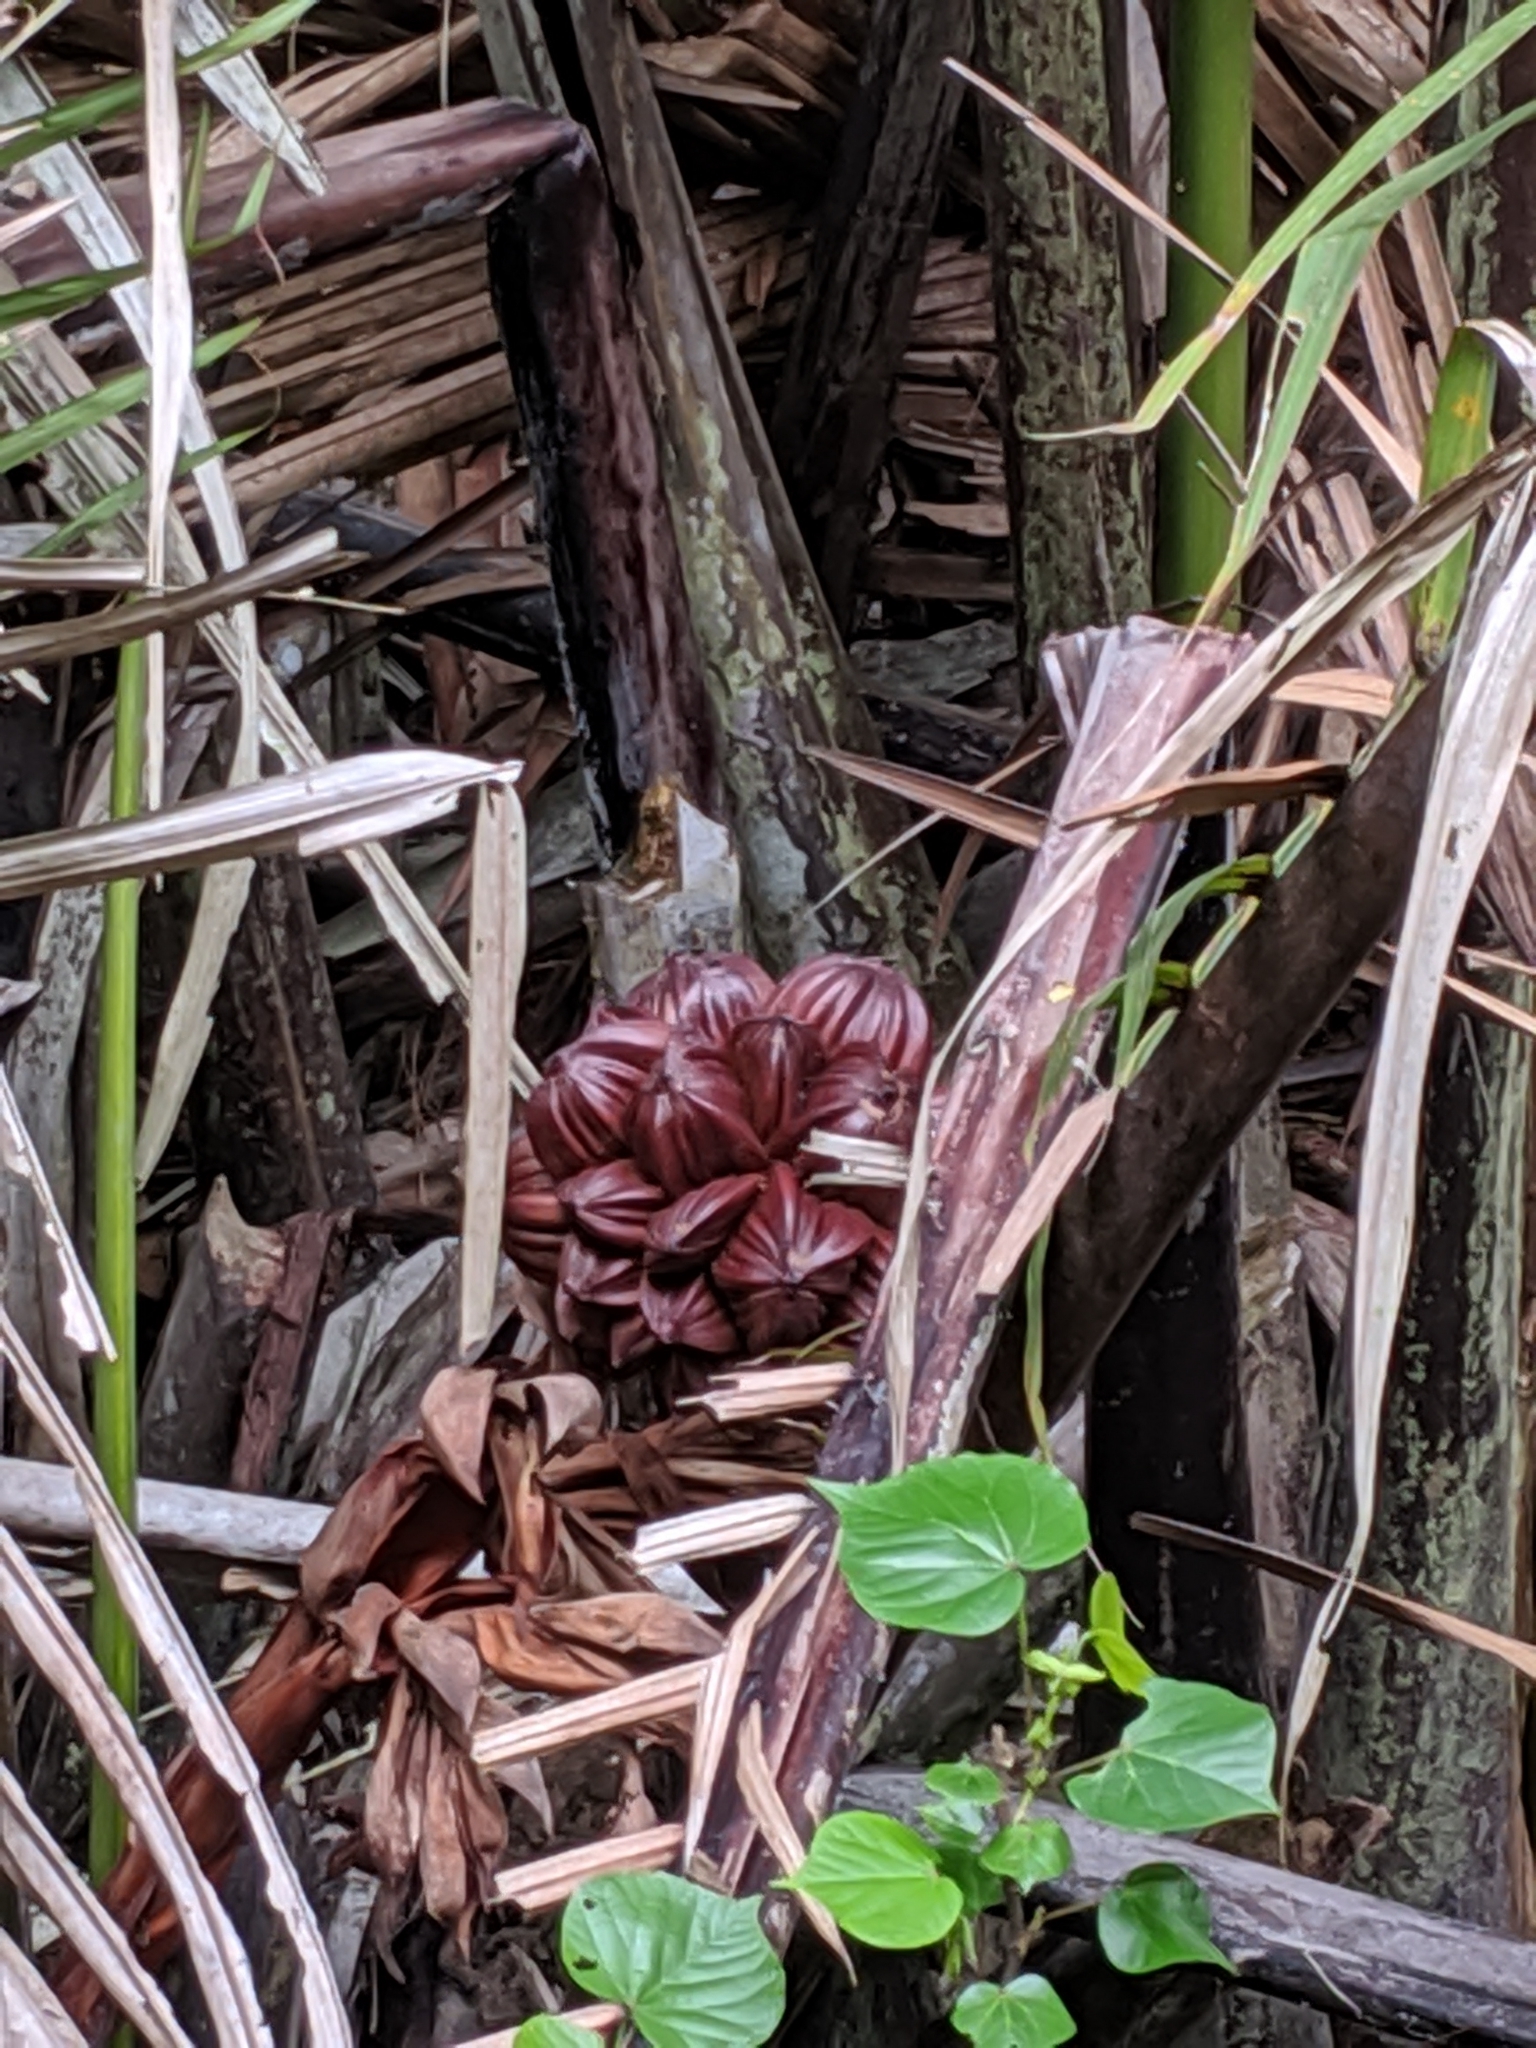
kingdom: Plantae
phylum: Tracheophyta
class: Liliopsida
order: Arecales
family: Arecaceae
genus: Nypa
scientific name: Nypa fruticans
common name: Mangrove palm
